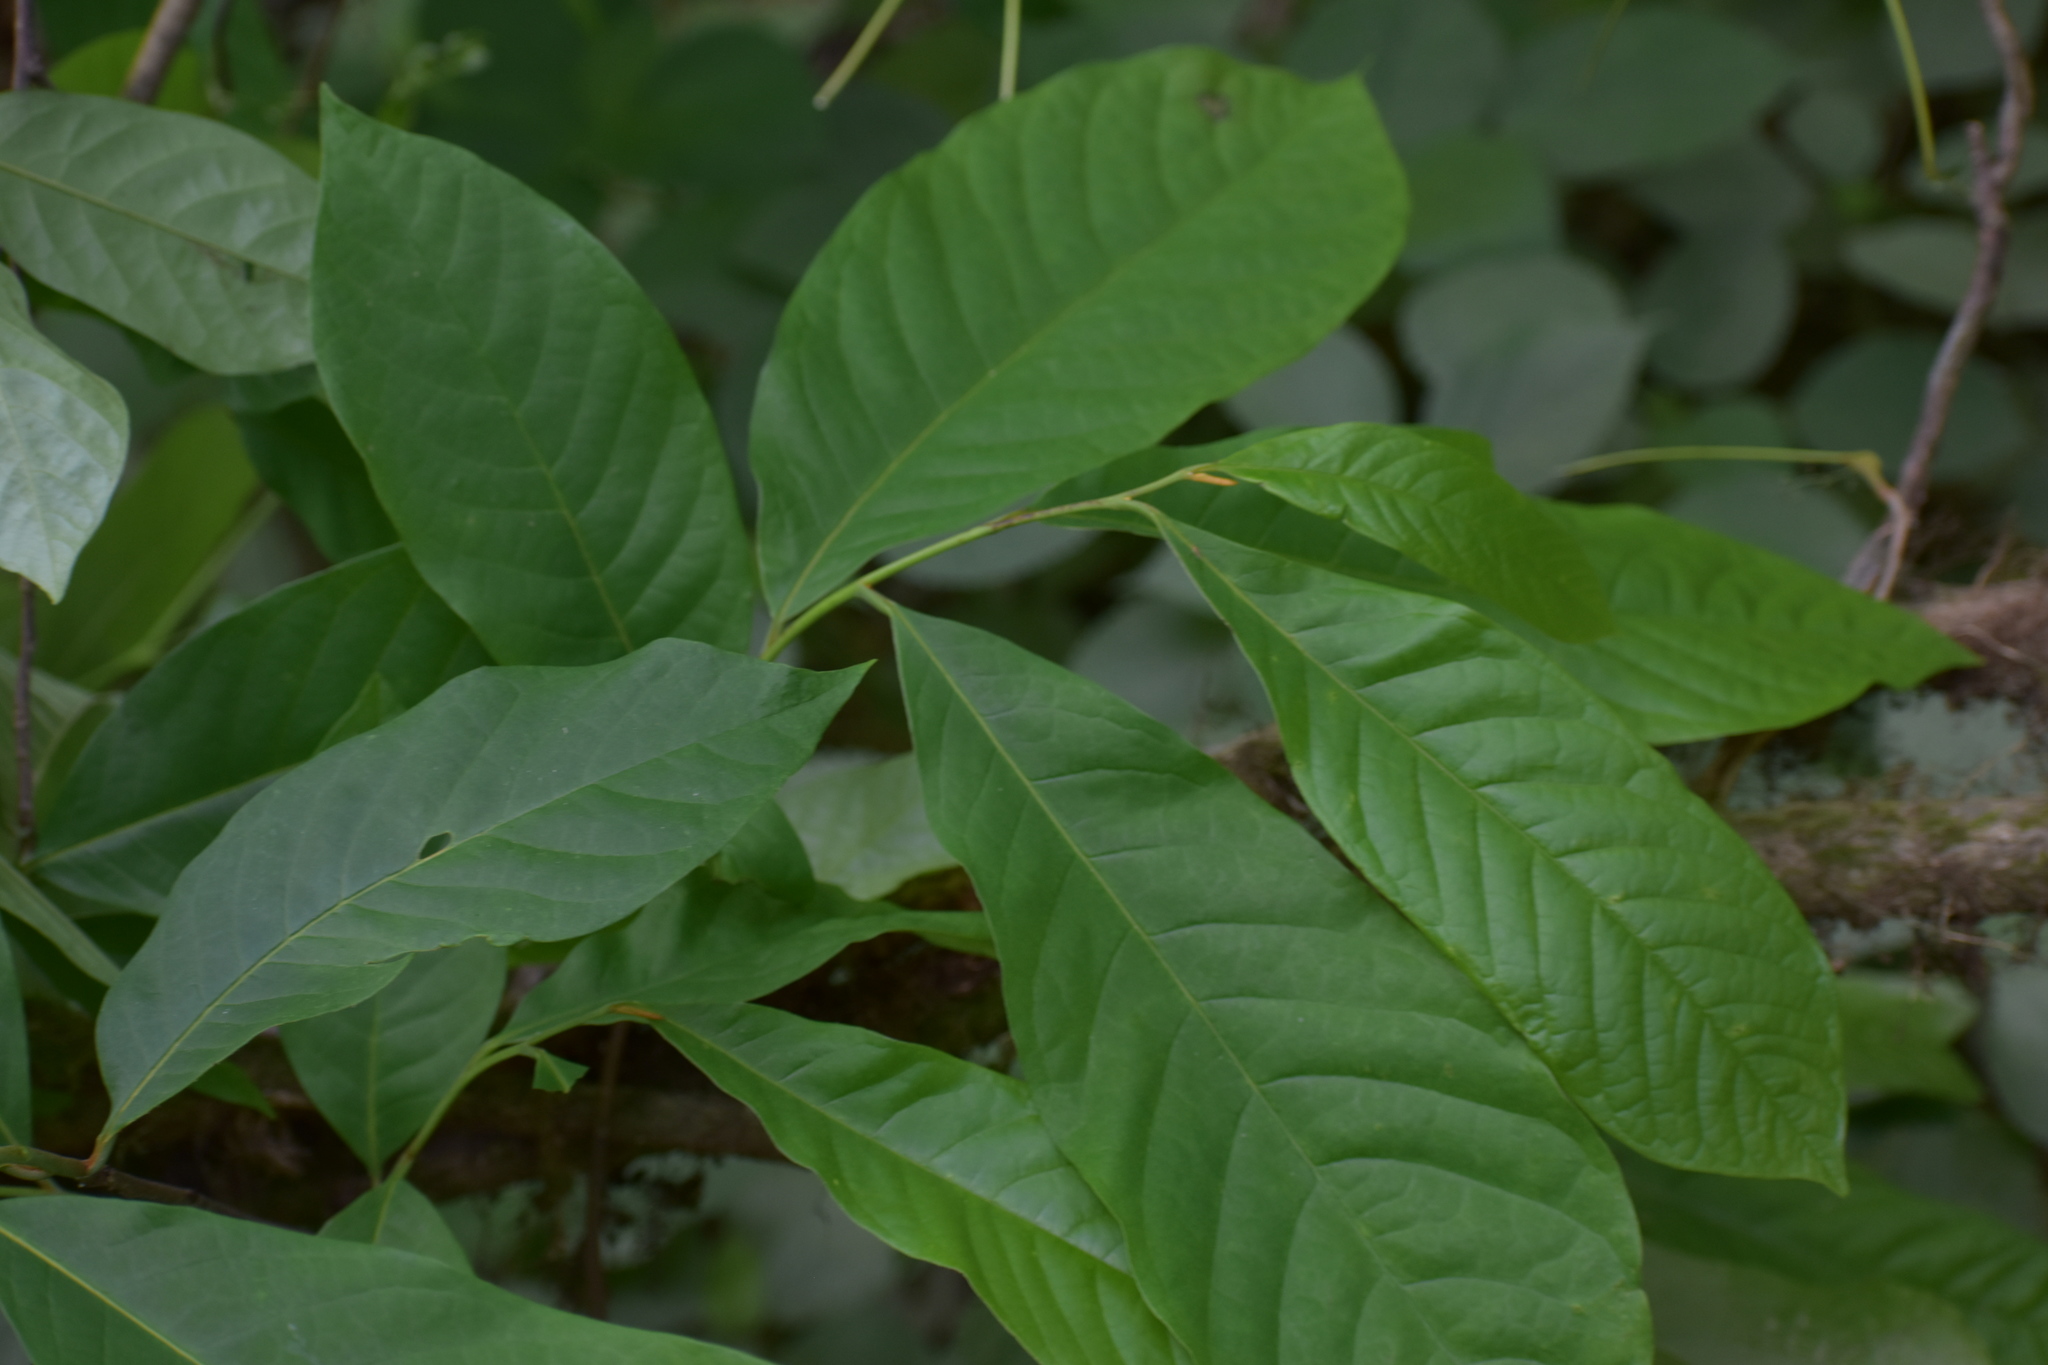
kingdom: Plantae
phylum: Tracheophyta
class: Magnoliopsida
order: Magnoliales
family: Annonaceae
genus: Asimina
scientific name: Asimina triloba
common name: Dog-banana
